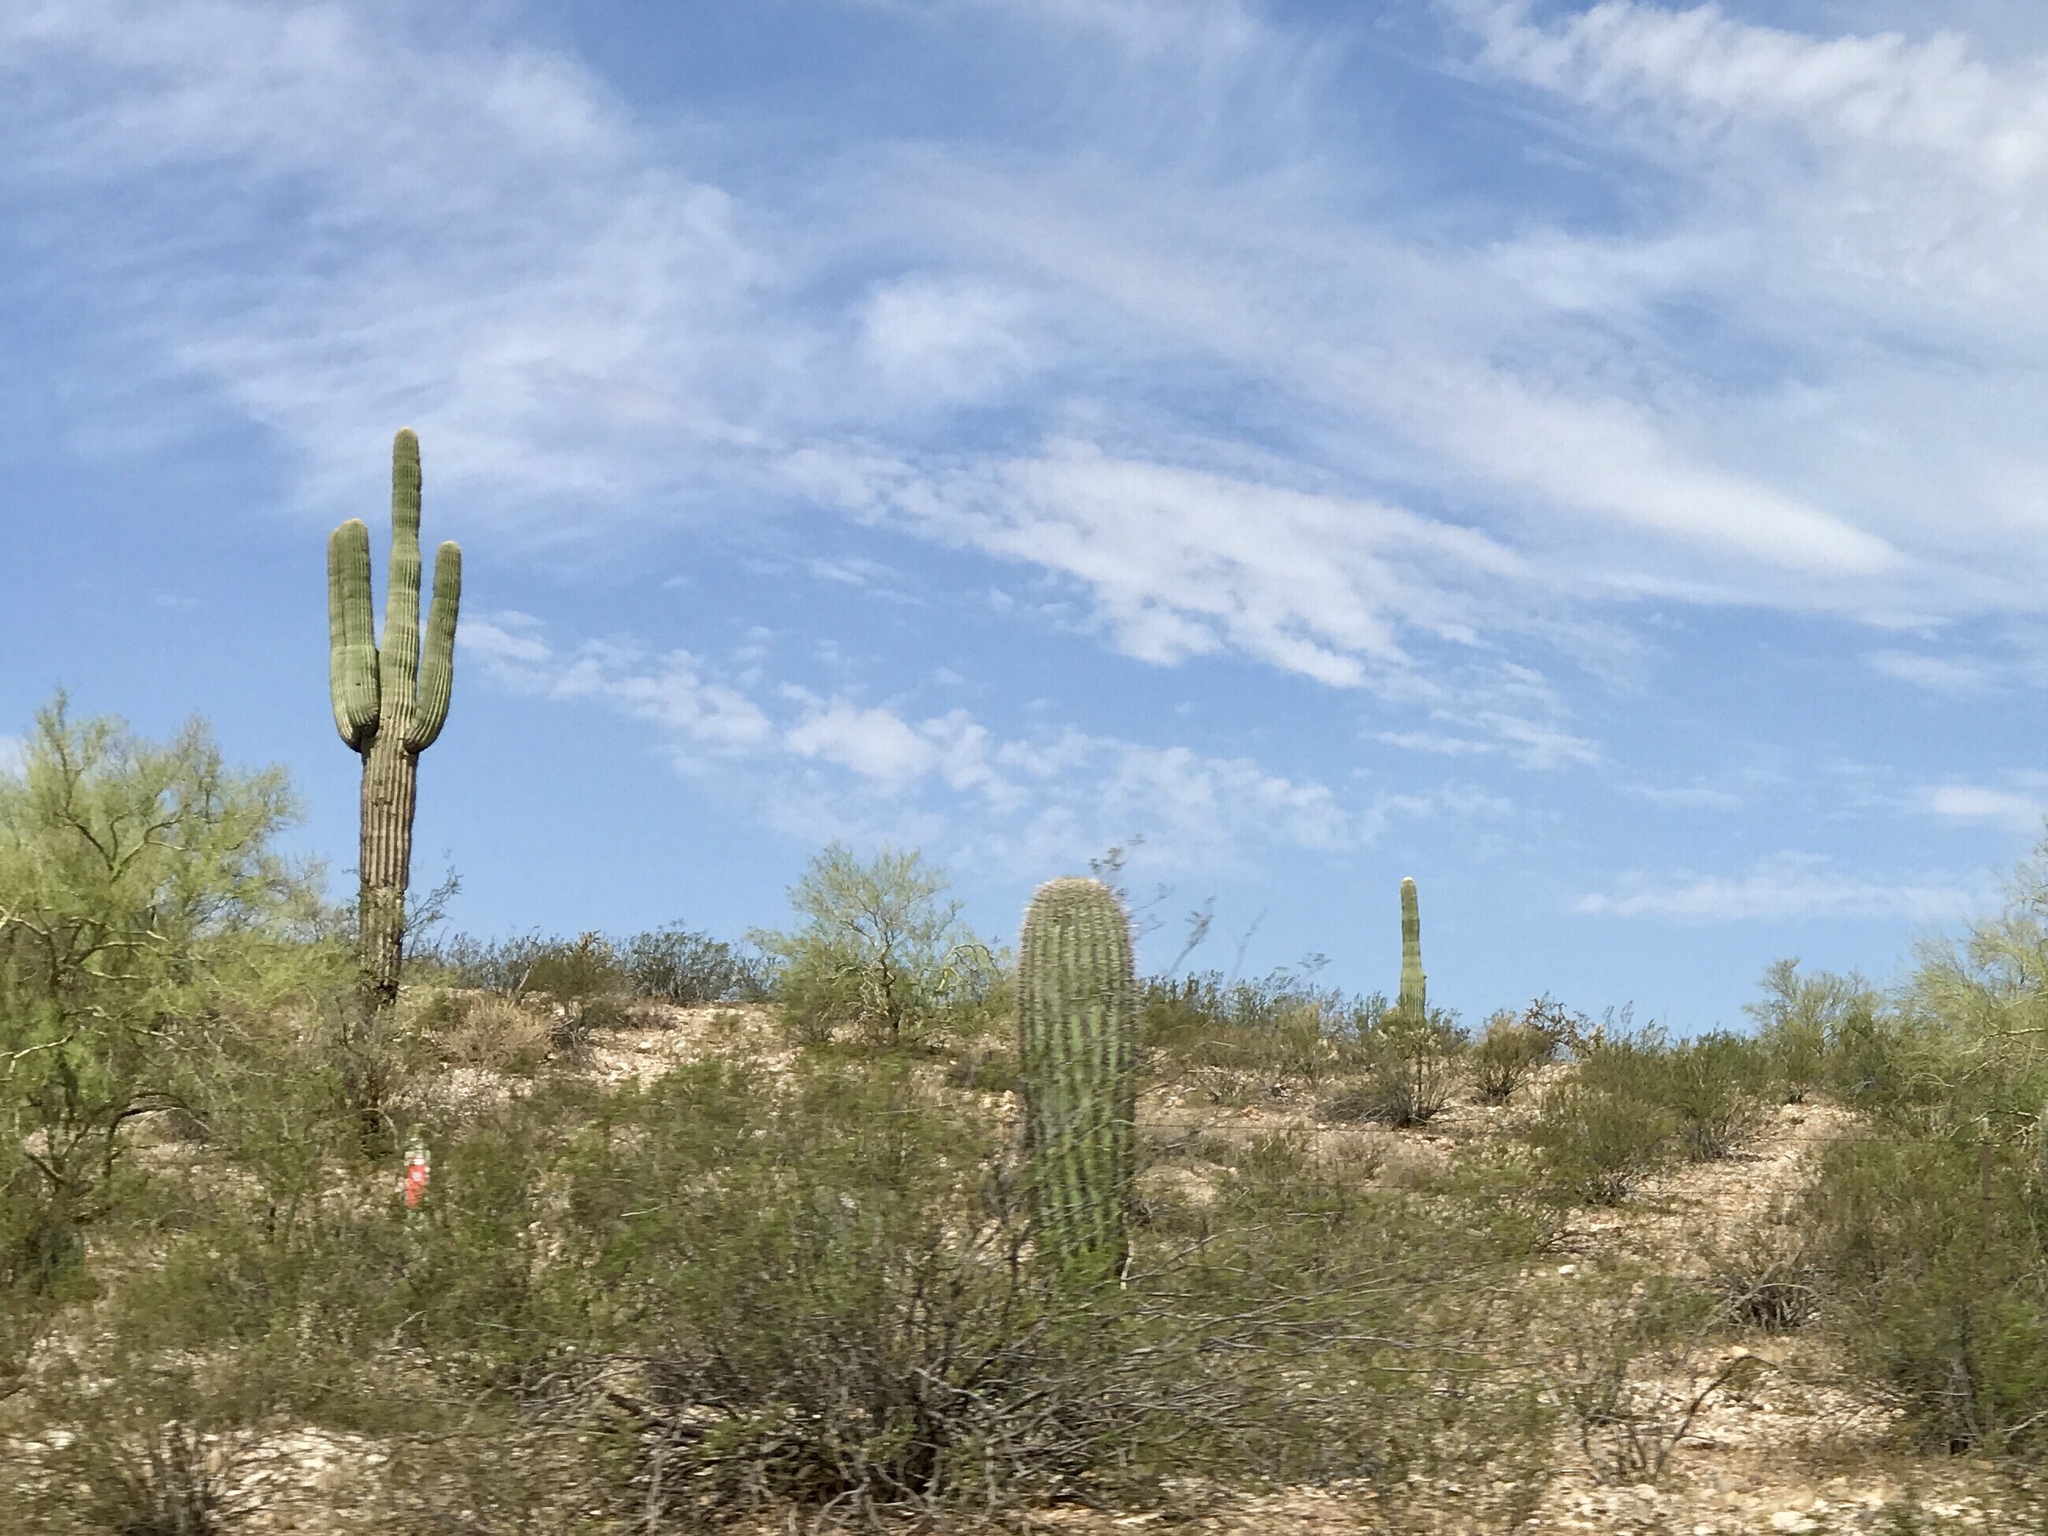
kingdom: Plantae
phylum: Tracheophyta
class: Magnoliopsida
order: Caryophyllales
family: Cactaceae
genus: Carnegiea
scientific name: Carnegiea gigantea
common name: Saguaro
